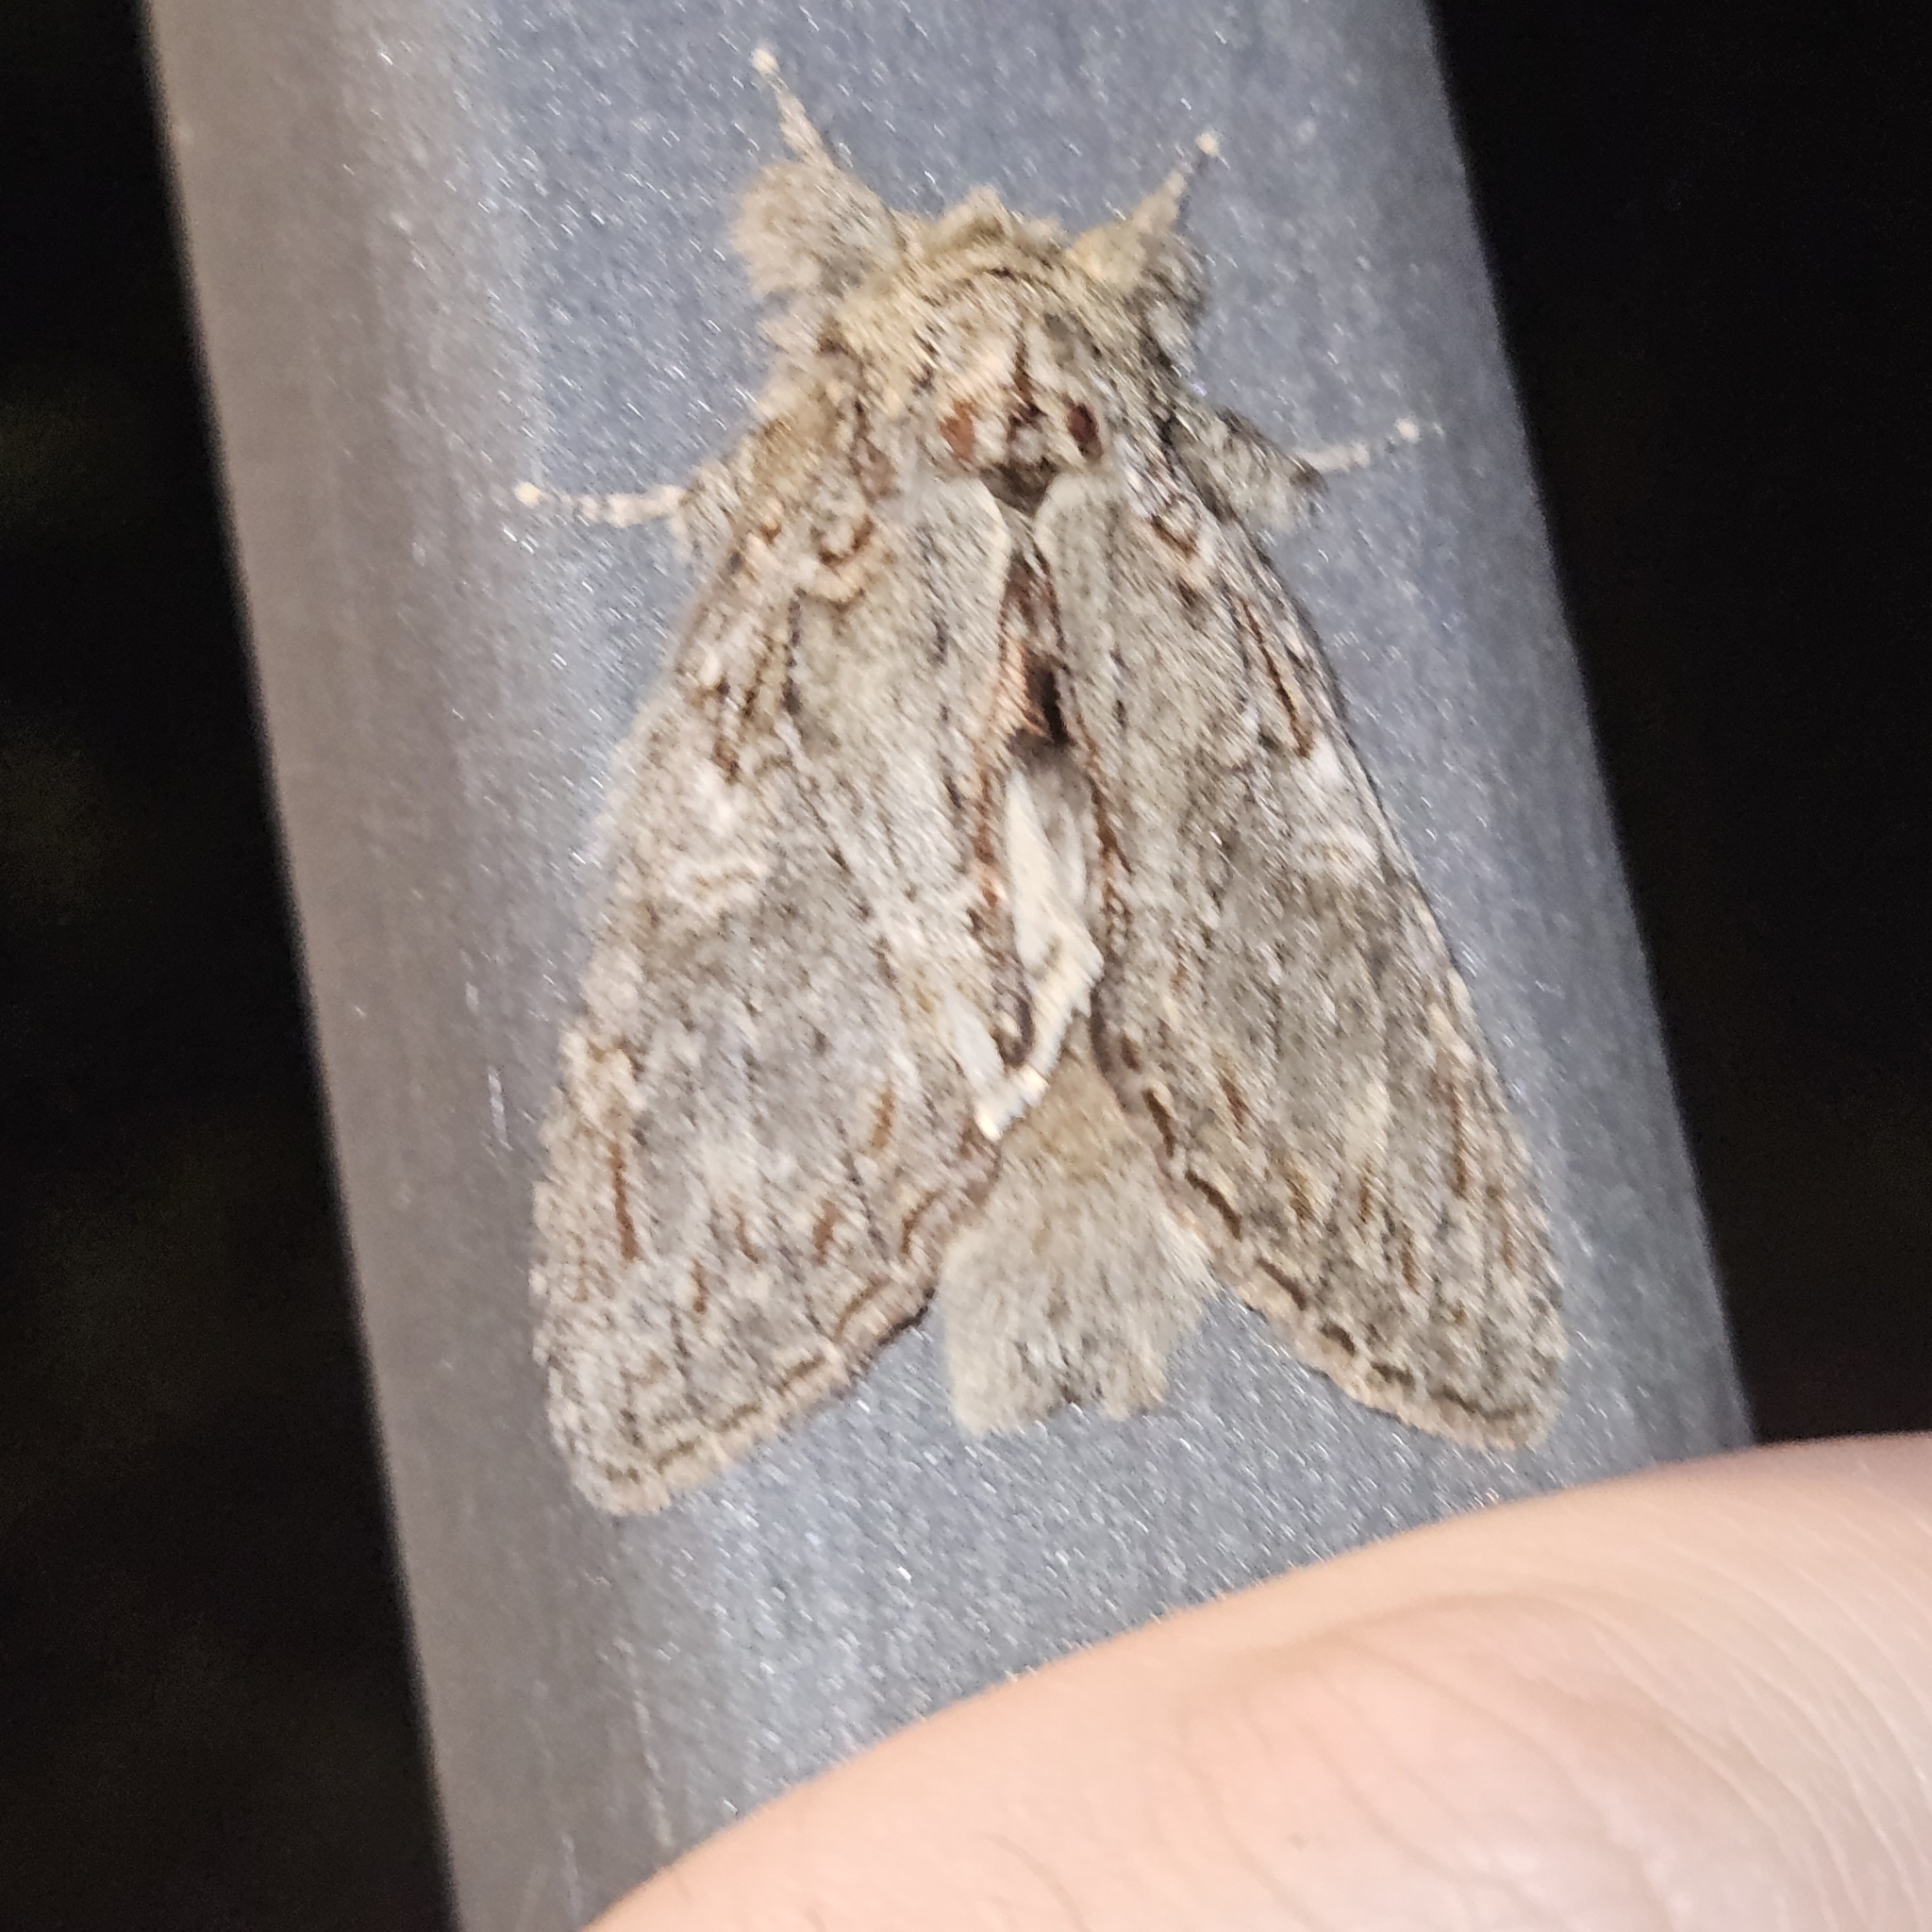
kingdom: Animalia
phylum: Arthropoda
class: Insecta
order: Lepidoptera
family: Notodontidae
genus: Peridea
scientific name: Peridea anceps
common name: Great prominent
